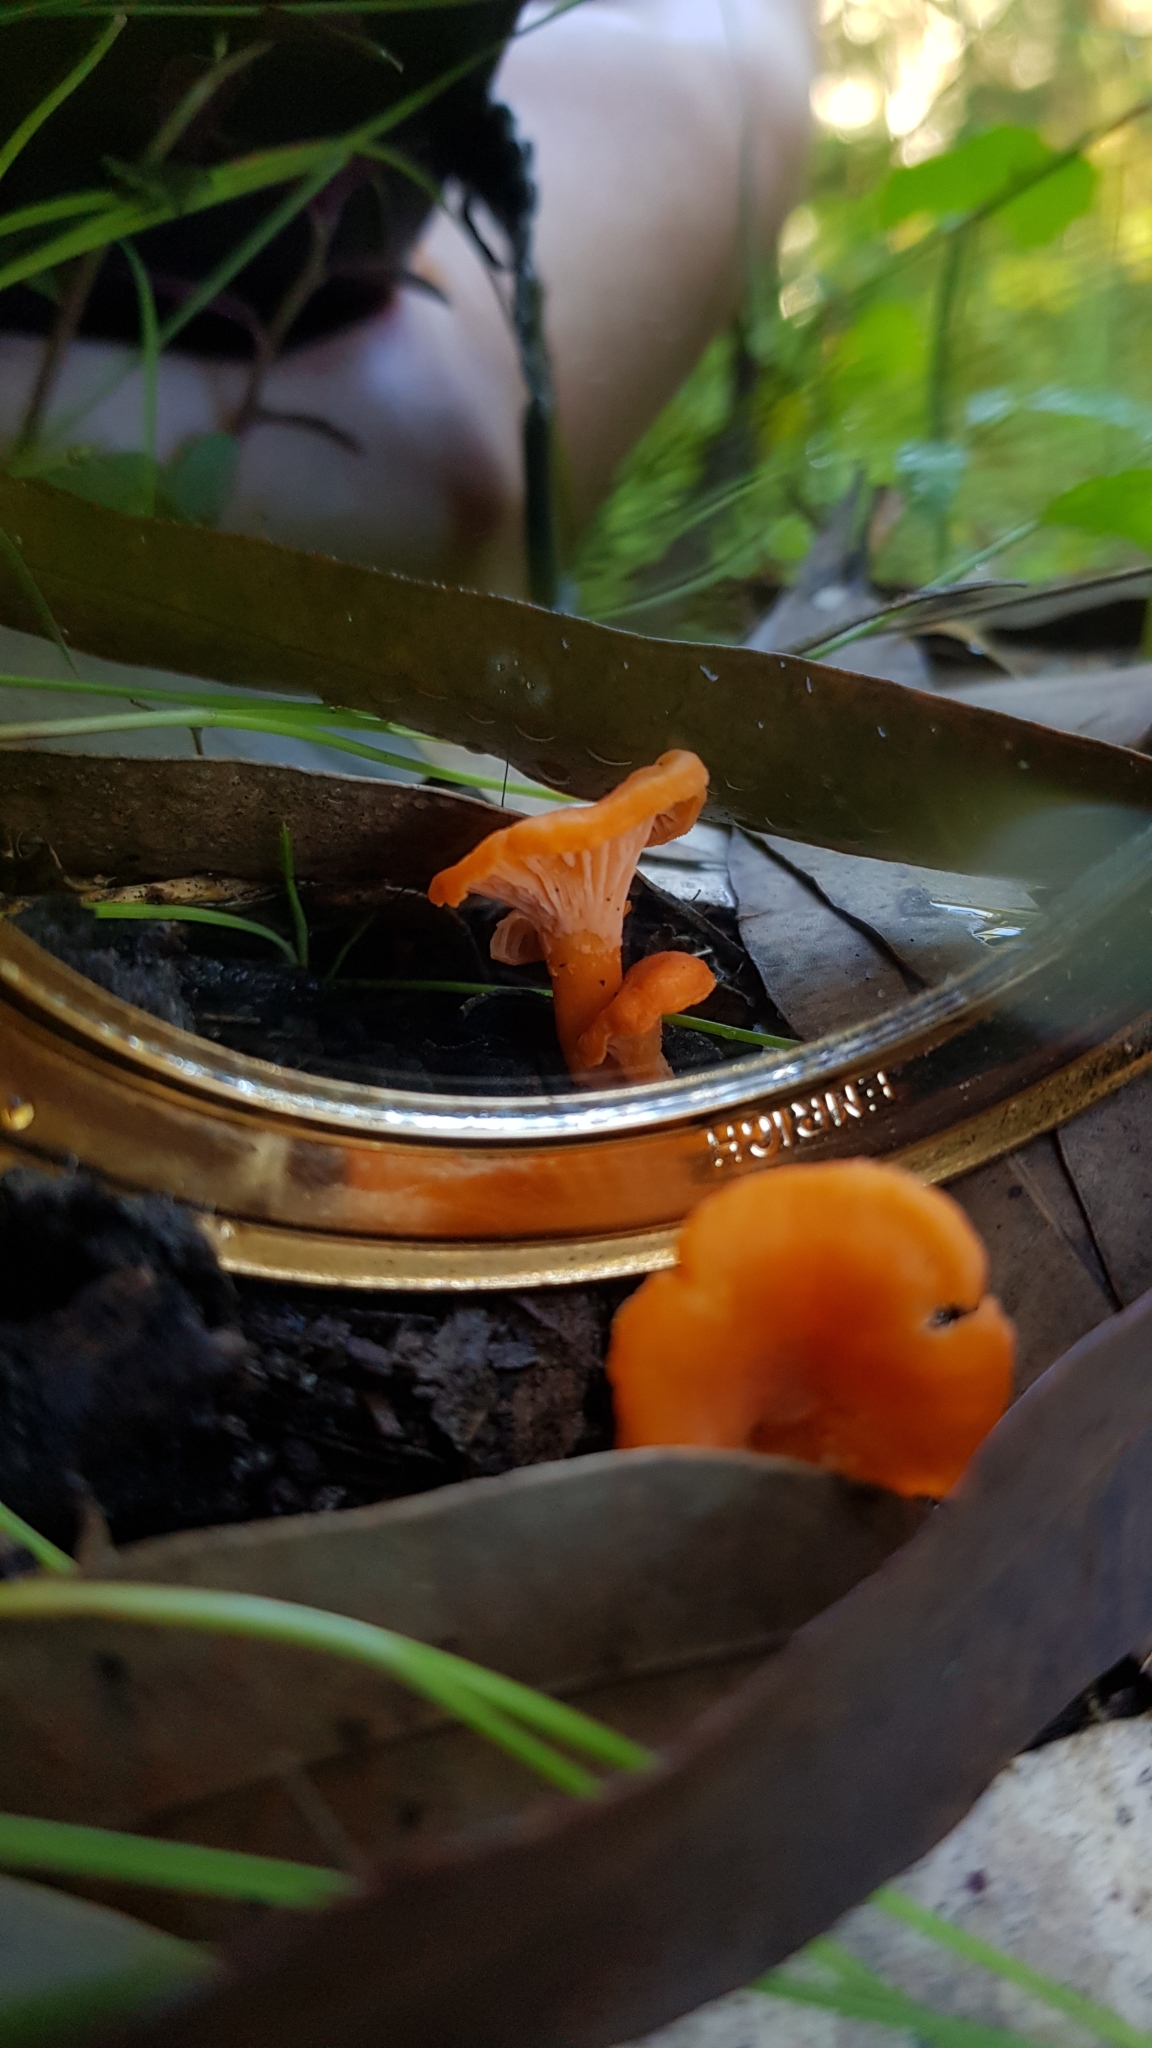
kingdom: Fungi
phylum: Basidiomycota
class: Agaricomycetes
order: Cantharellales
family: Hydnaceae
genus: Cantharellus
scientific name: Cantharellus
